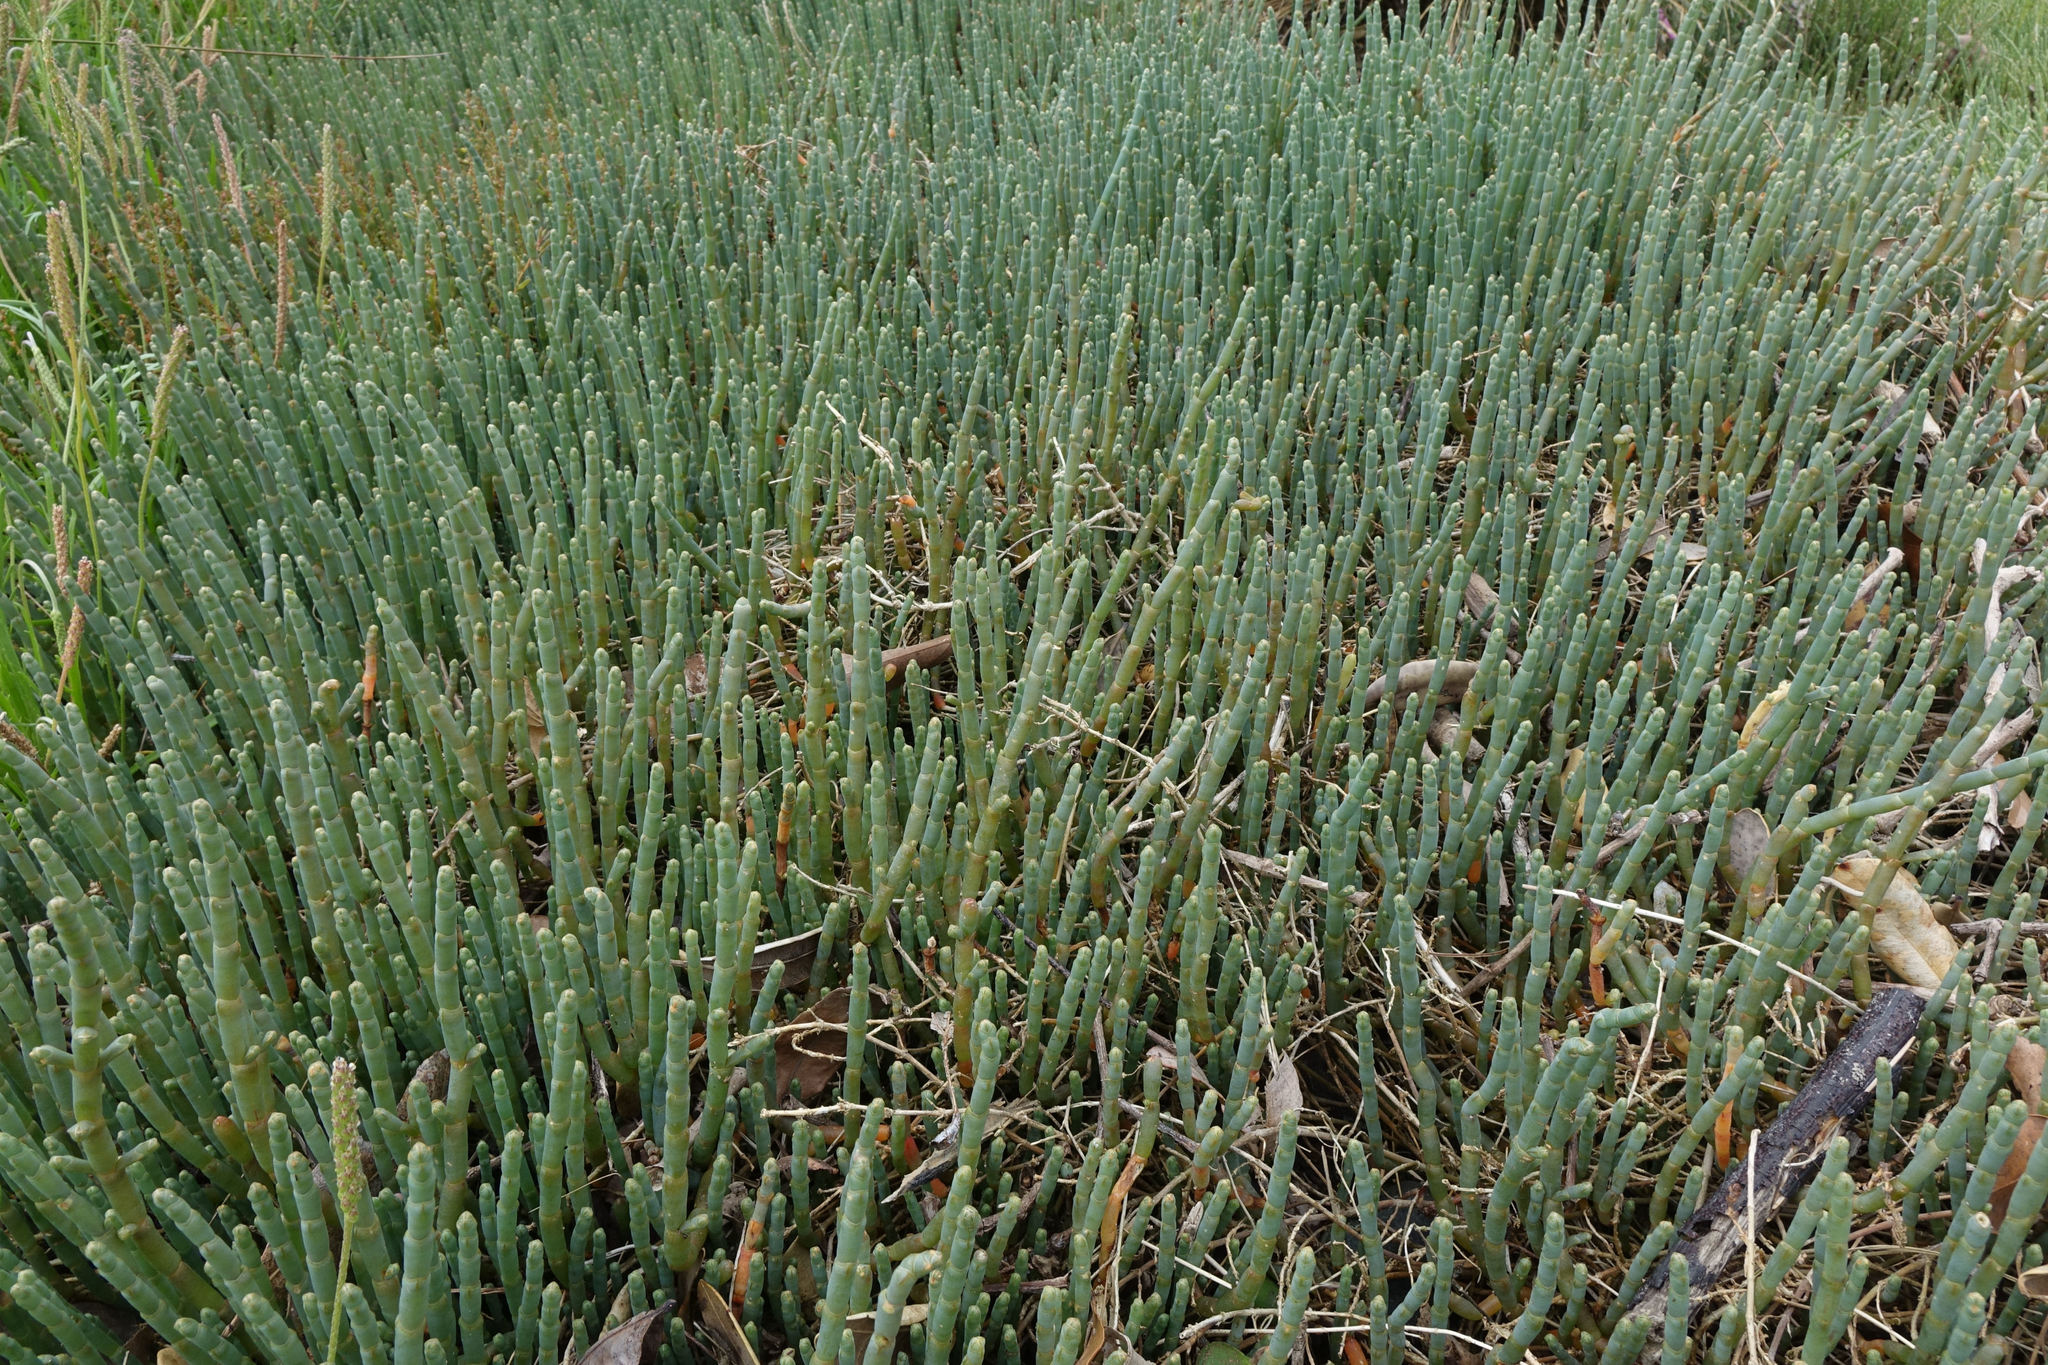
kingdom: Plantae
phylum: Tracheophyta
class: Magnoliopsida
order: Caryophyllales
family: Amaranthaceae
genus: Salicornia
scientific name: Salicornia quinqueflora
